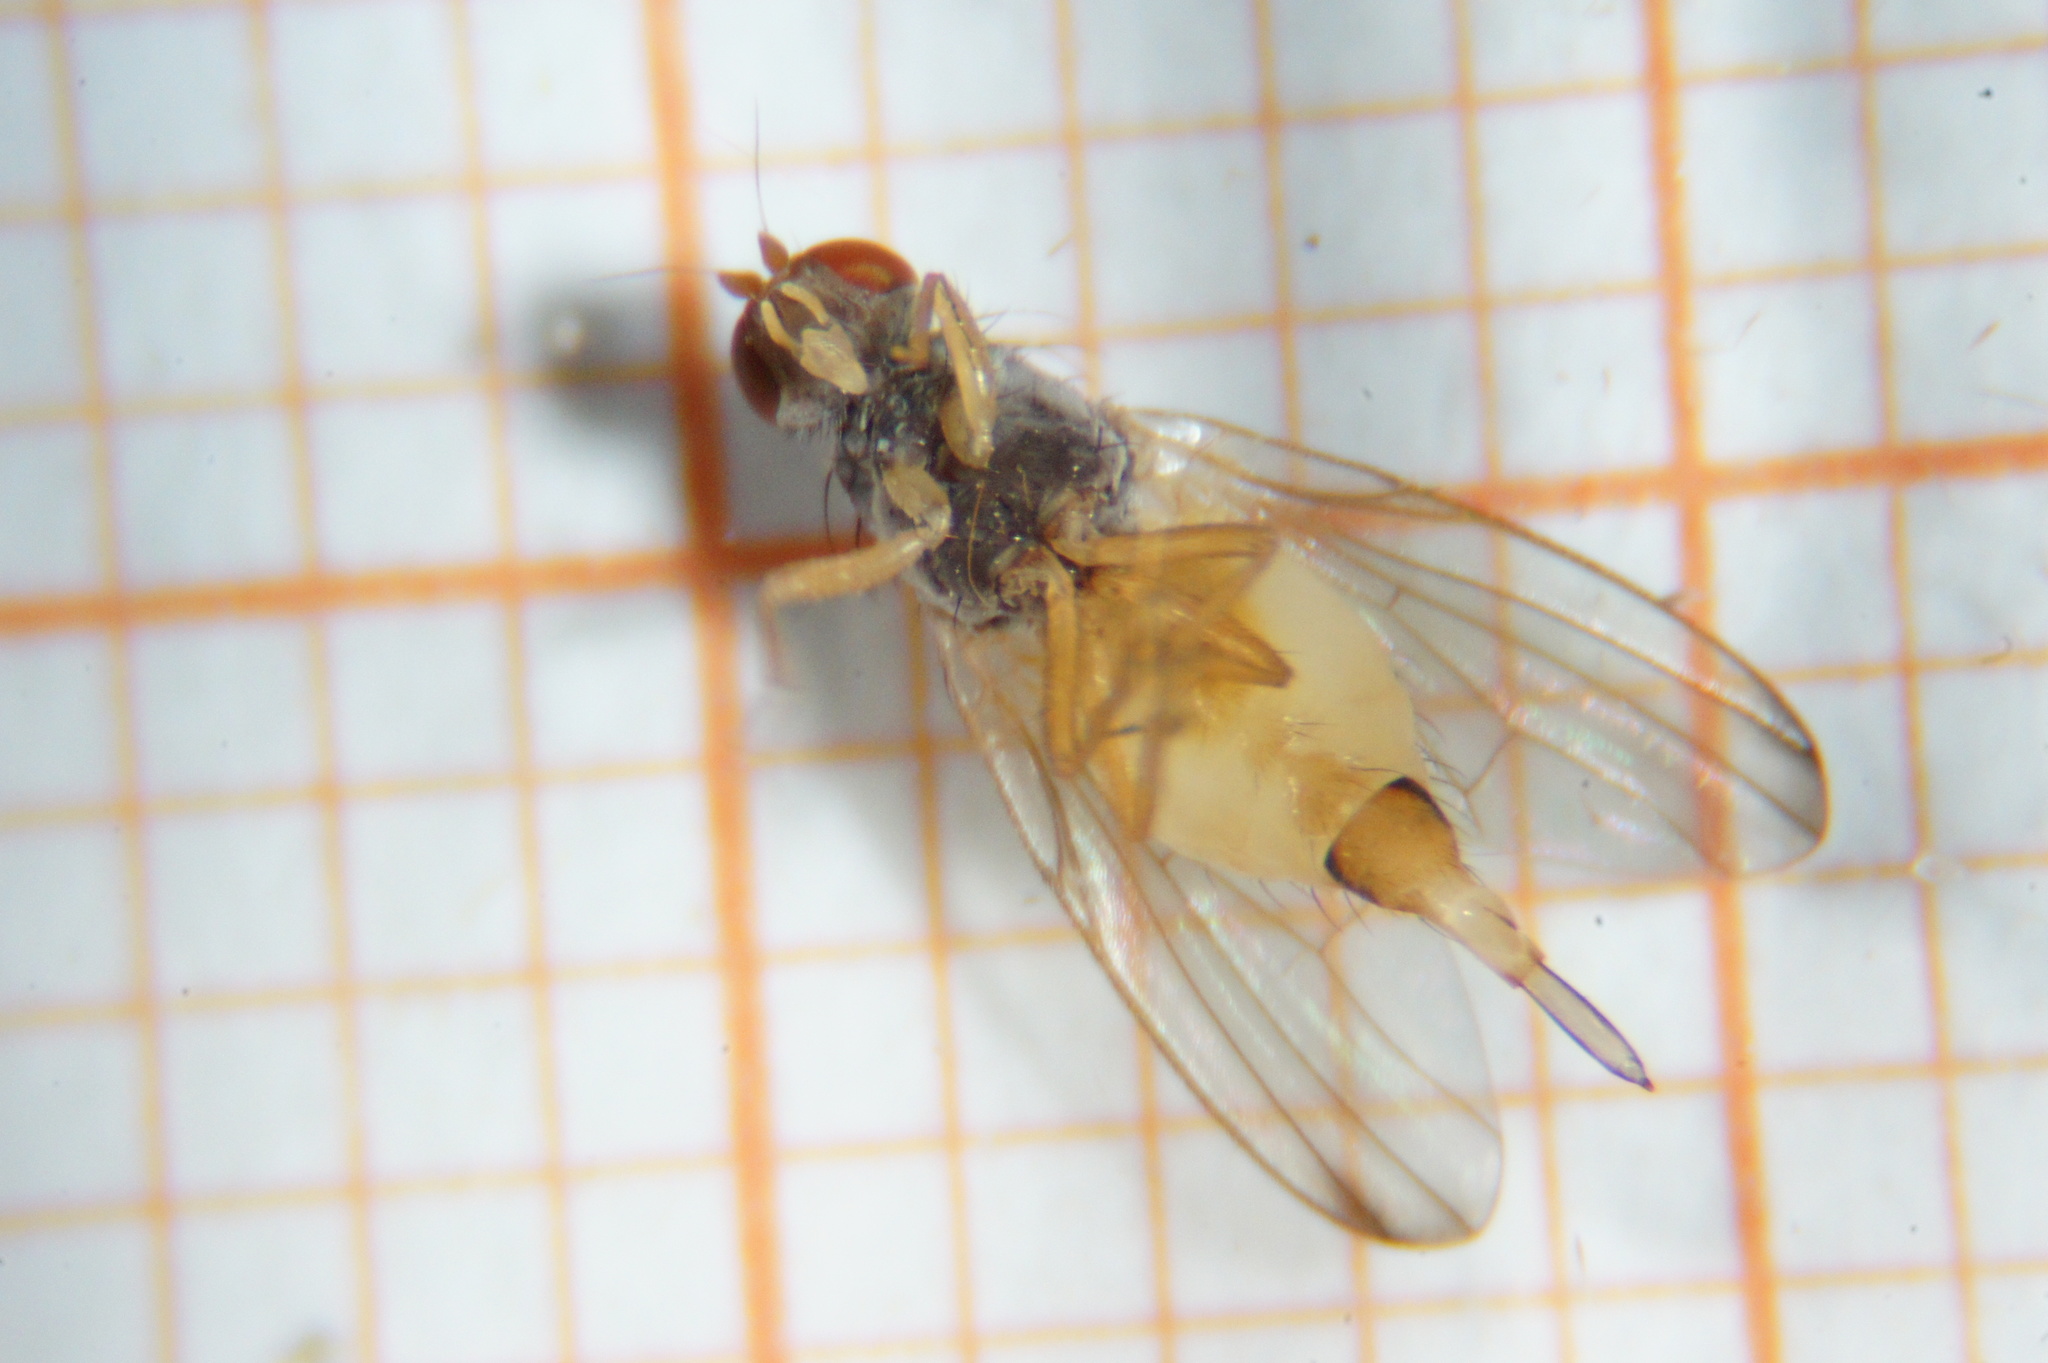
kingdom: Animalia
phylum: Arthropoda
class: Insecta
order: Diptera
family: Pallopteridae
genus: Palloptera
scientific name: Palloptera ustulata
